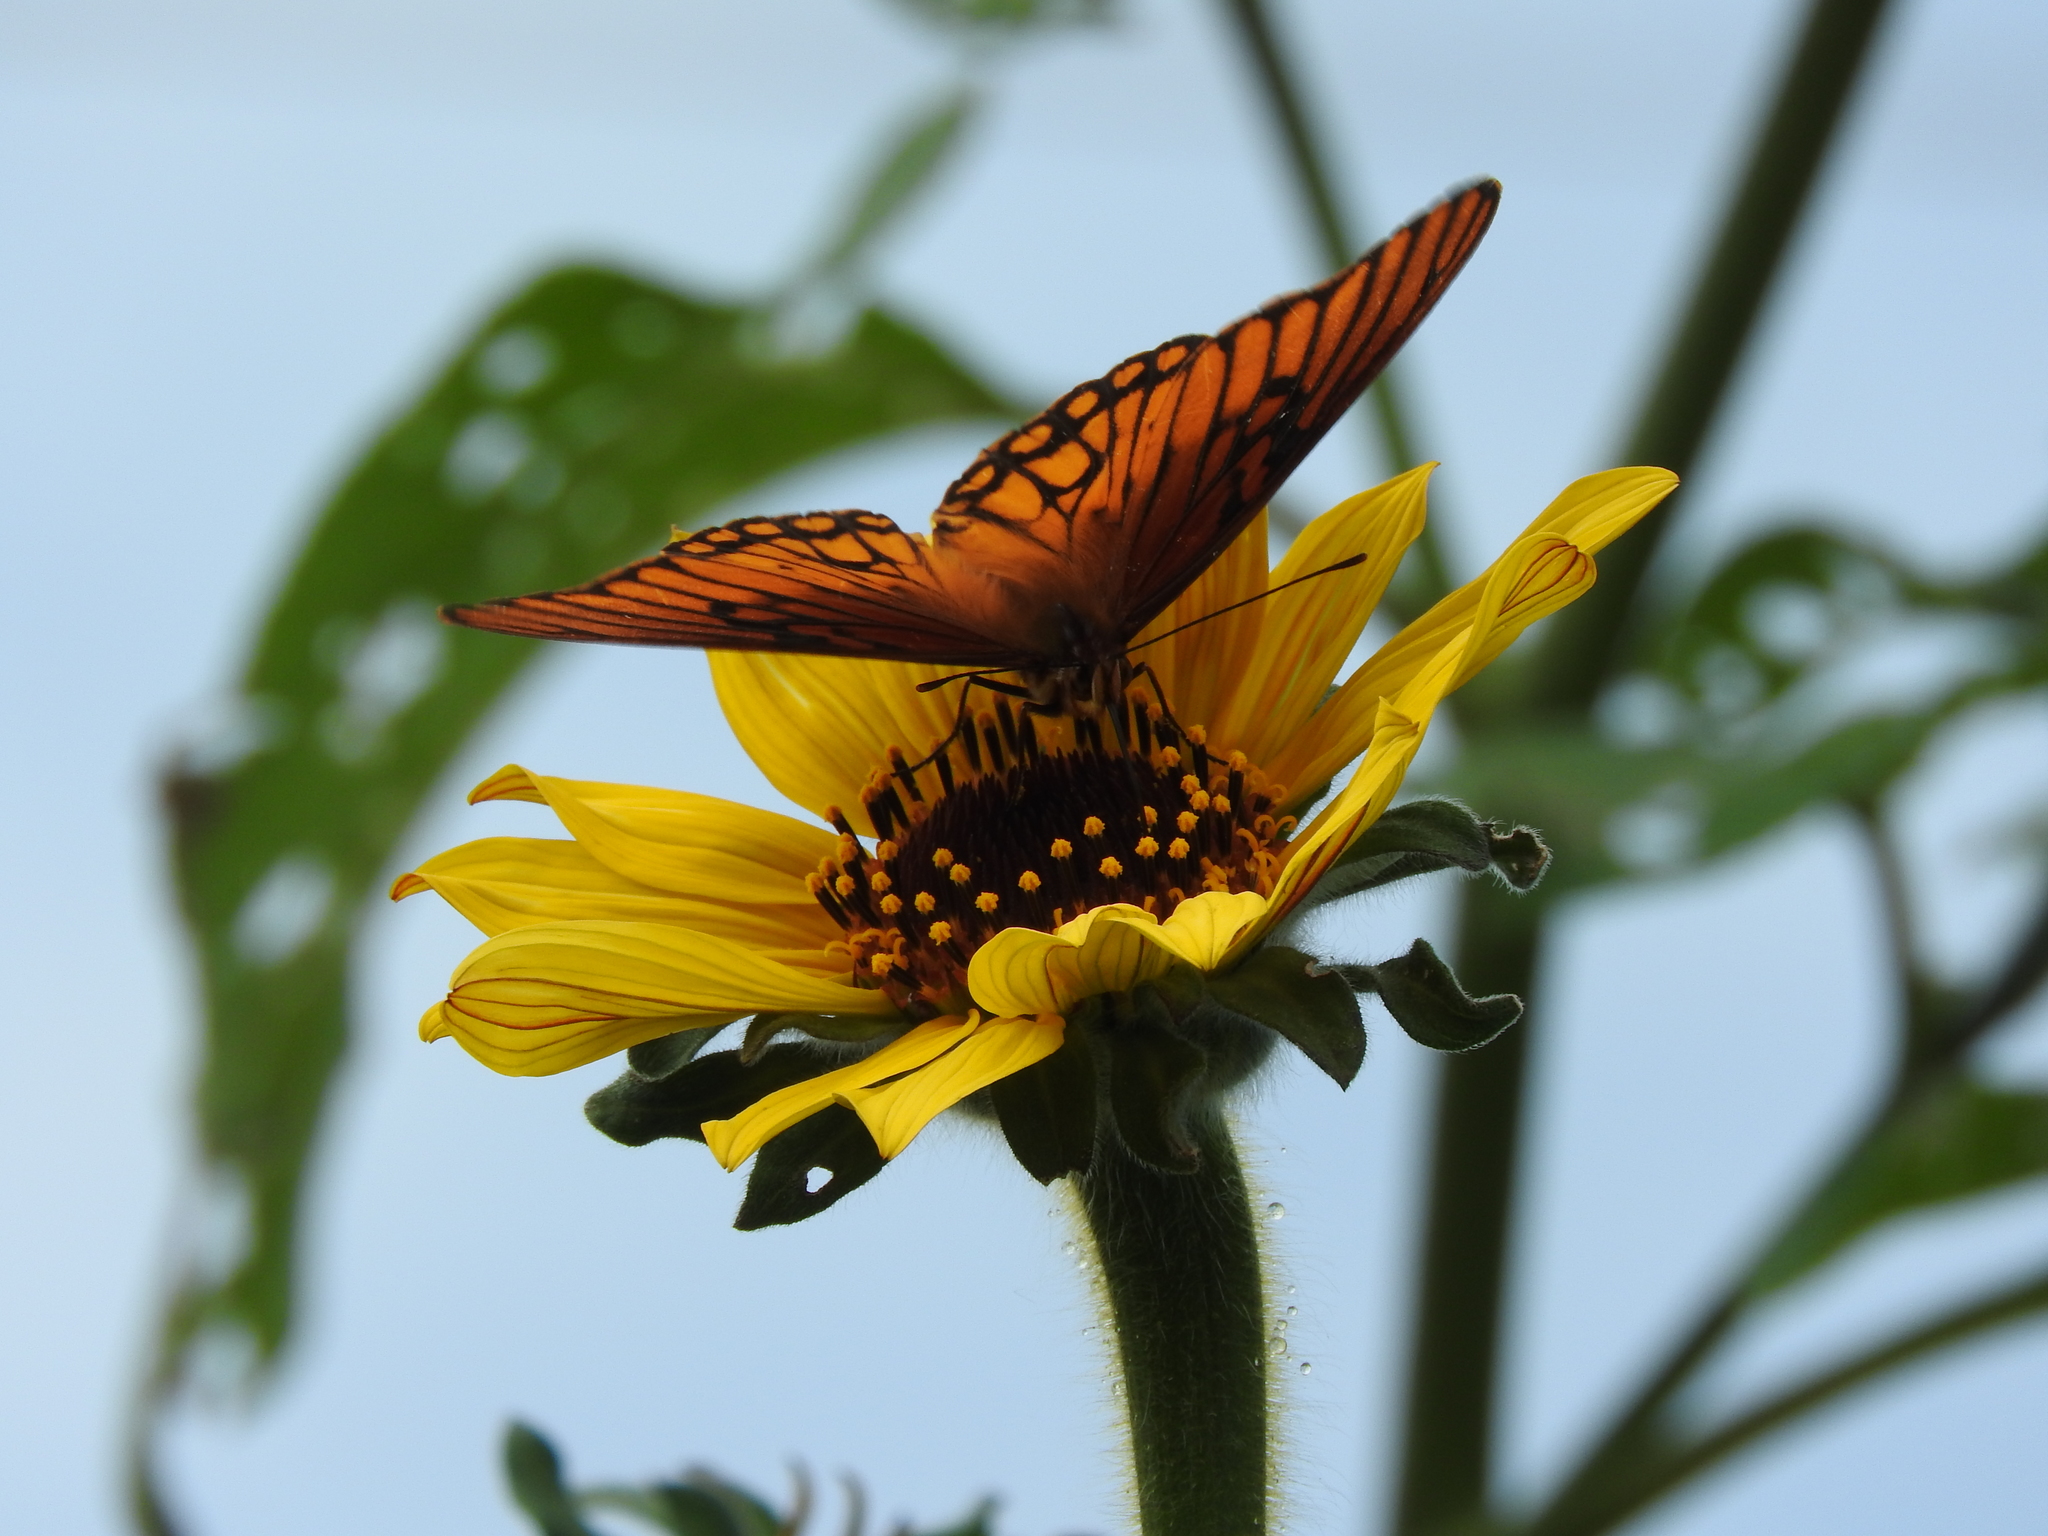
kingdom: Animalia
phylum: Arthropoda
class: Insecta
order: Lepidoptera
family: Nymphalidae
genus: Dione
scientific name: Dione moneta
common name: Mexican silverspot
